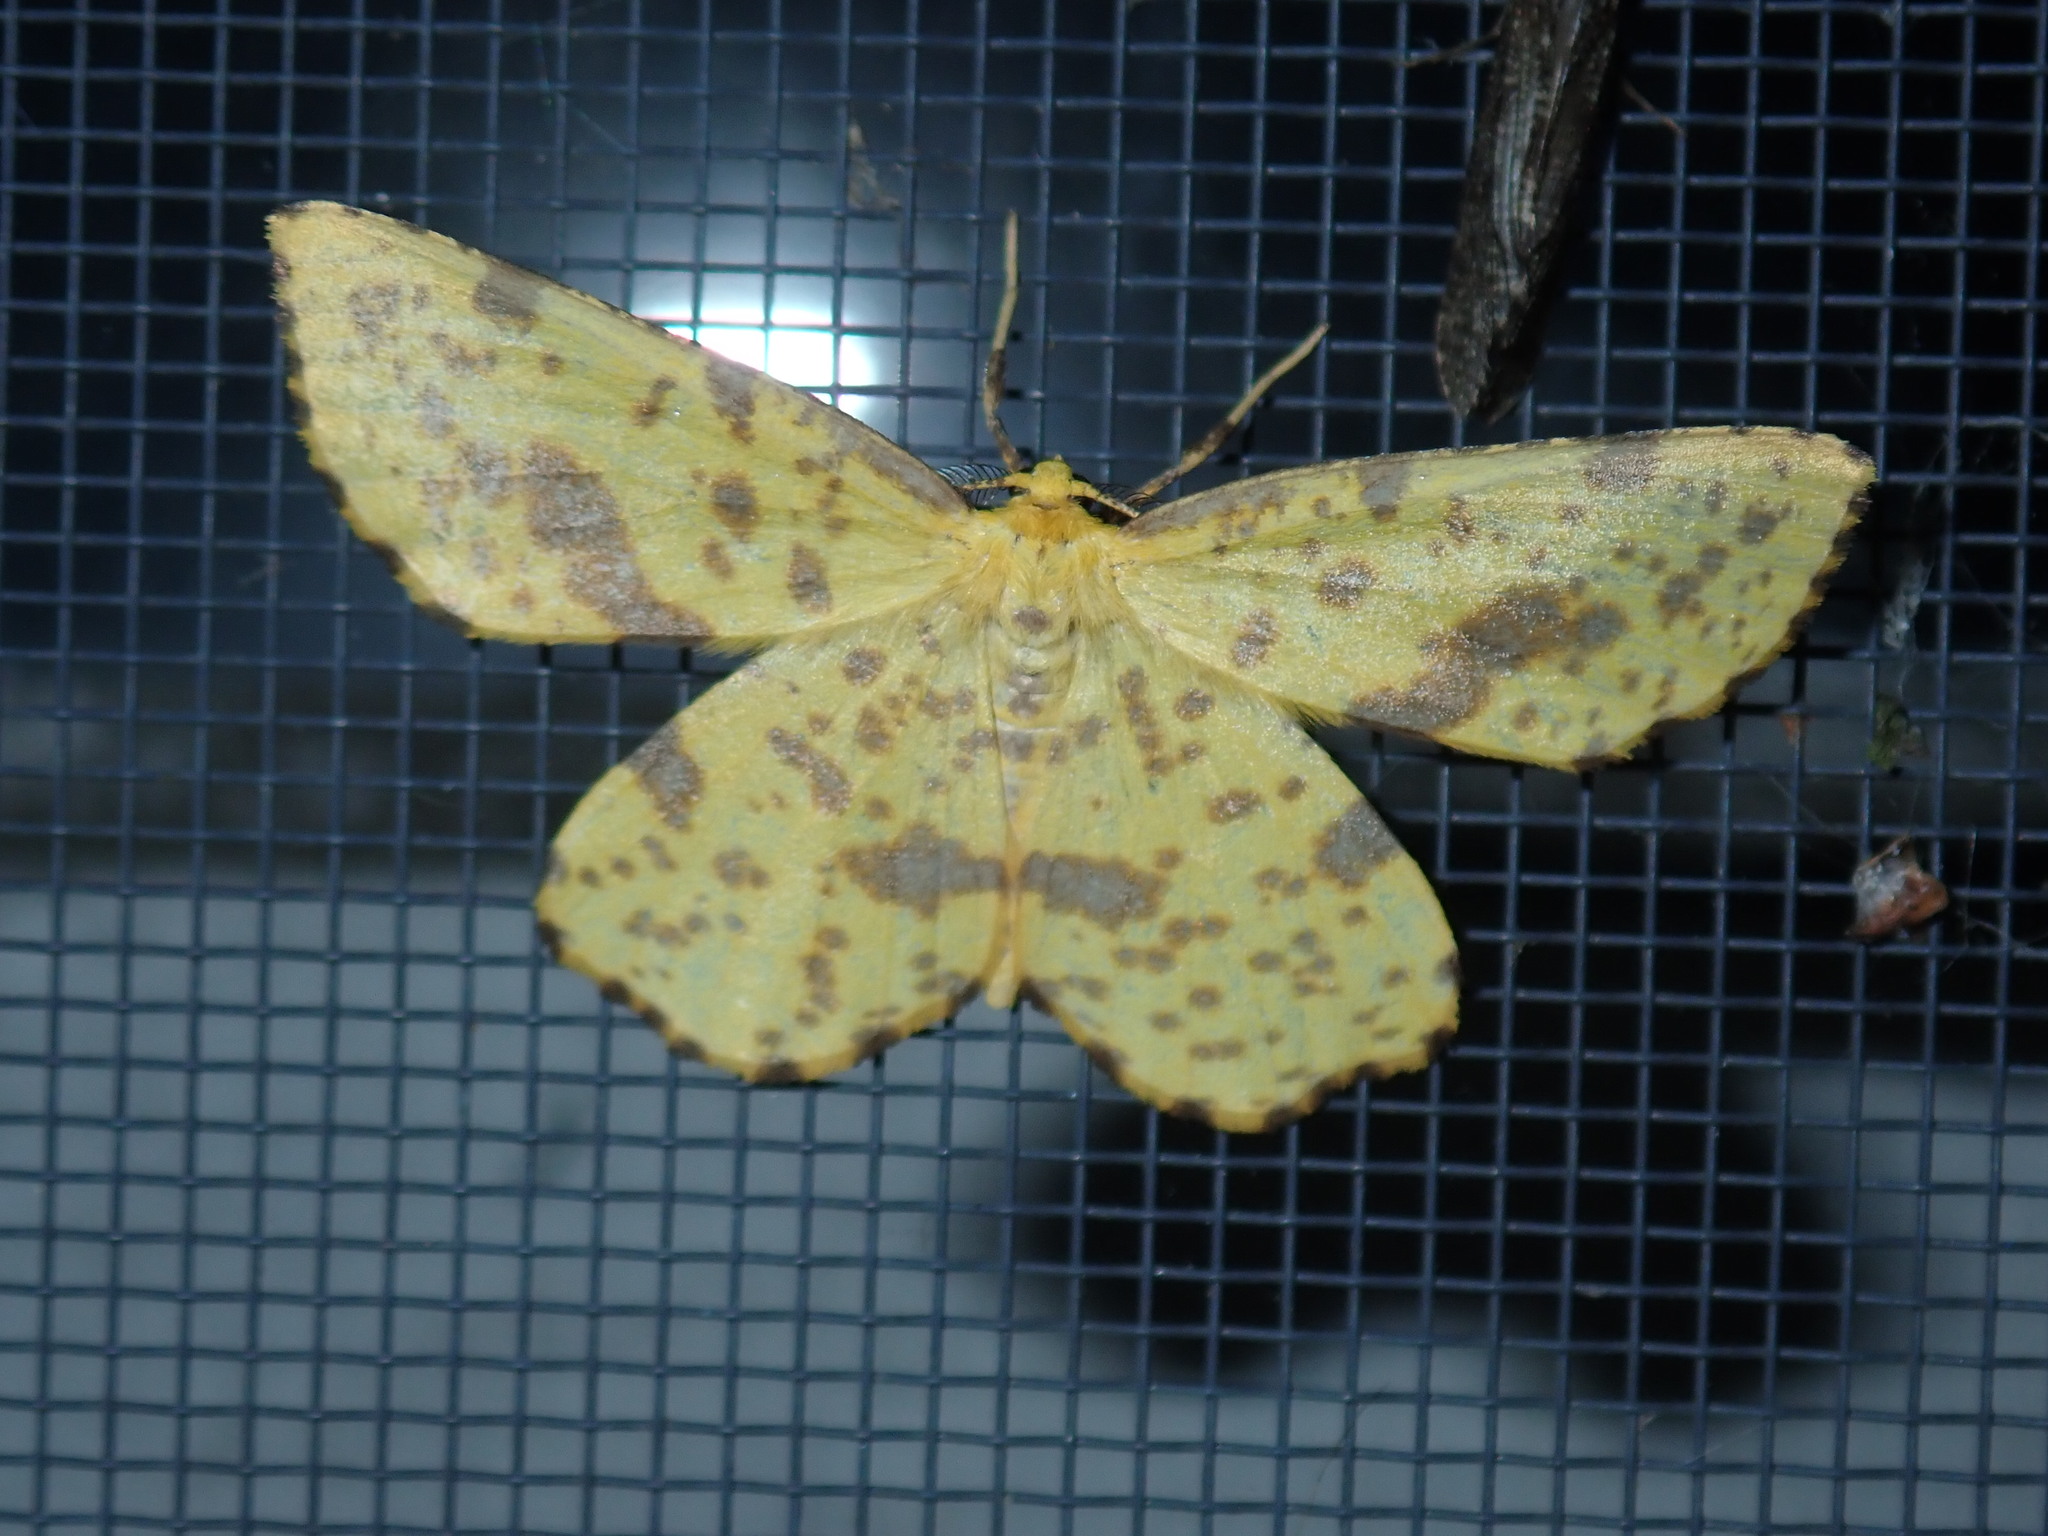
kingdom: Animalia
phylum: Arthropoda
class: Insecta
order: Lepidoptera
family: Geometridae
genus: Xanthotype
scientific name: Xanthotype
